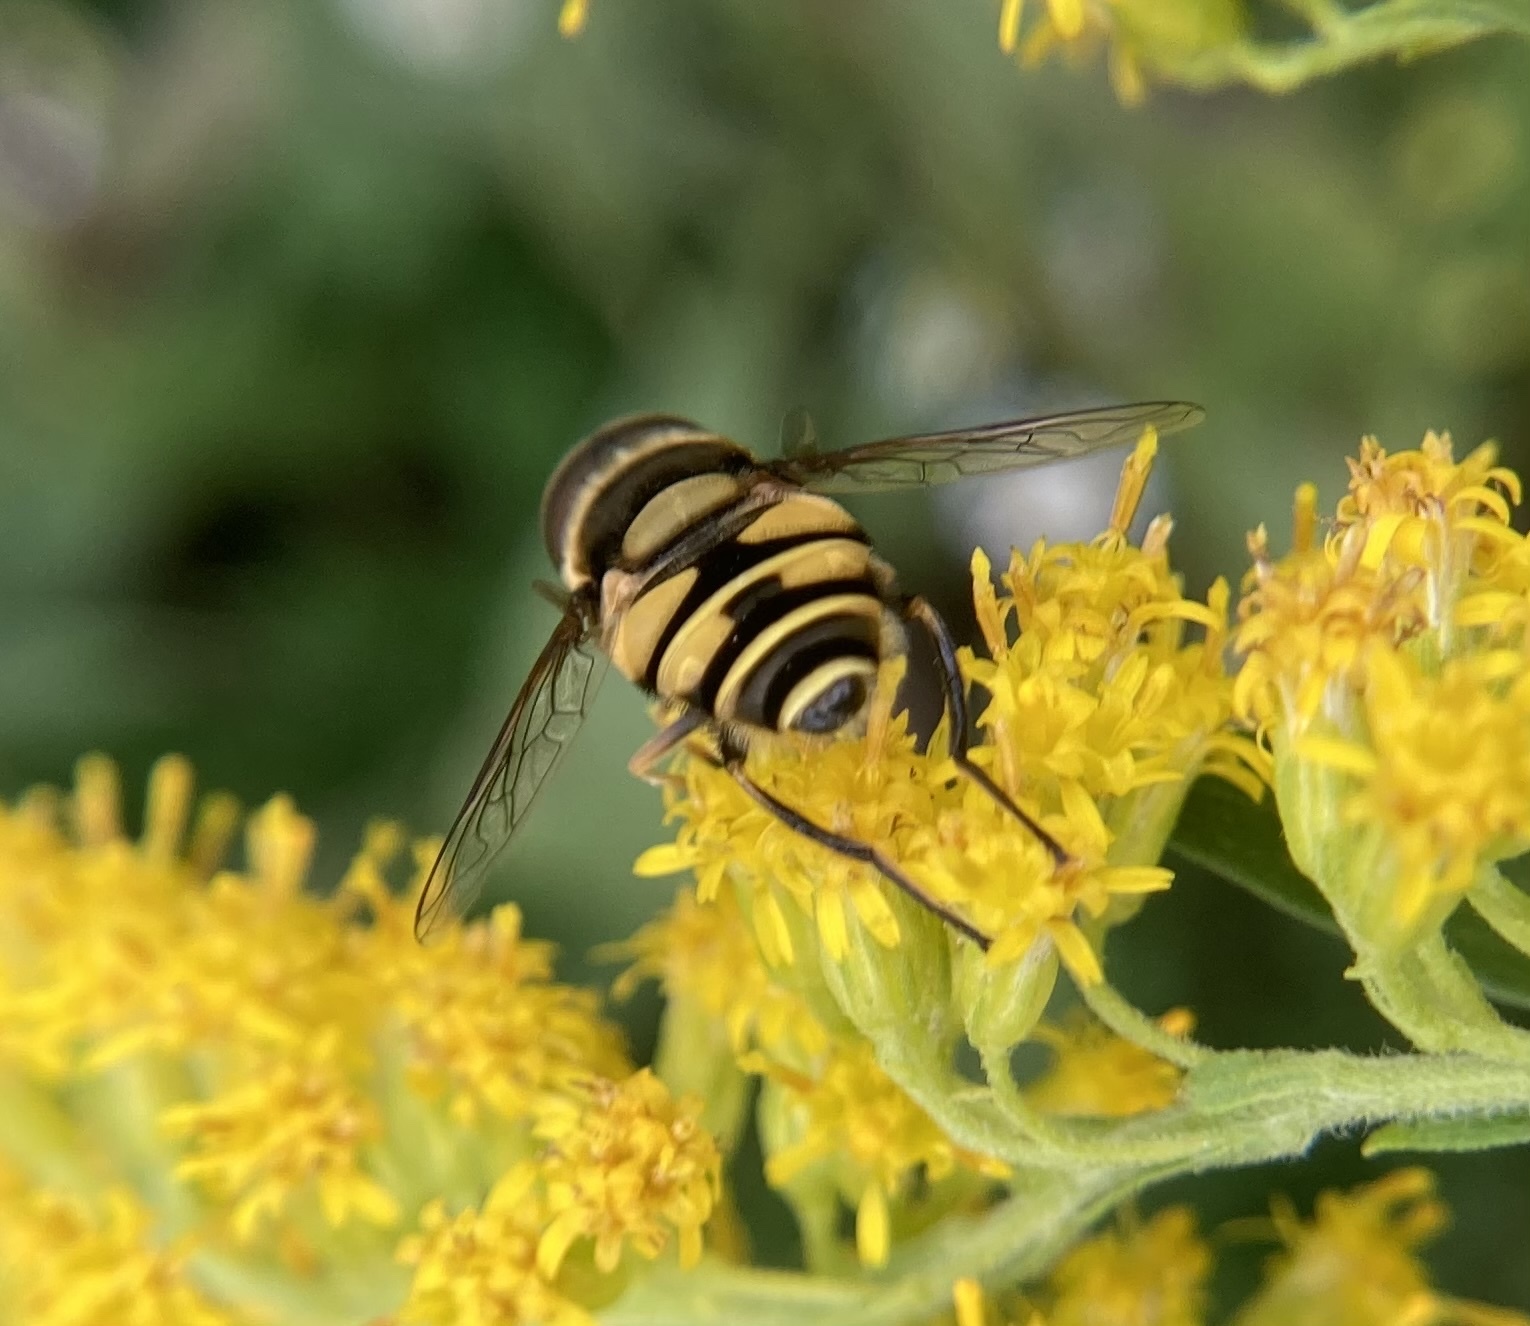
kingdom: Animalia
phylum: Arthropoda
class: Insecta
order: Diptera
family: Syrphidae
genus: Eristalis
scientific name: Eristalis transversa
